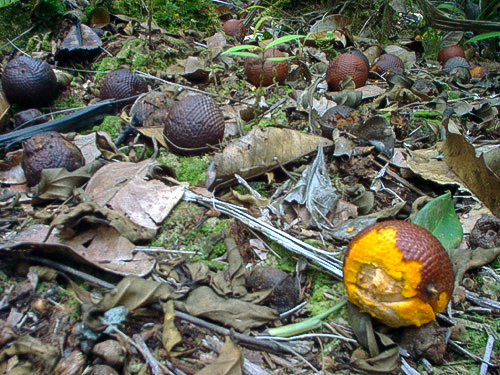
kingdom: Plantae
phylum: Tracheophyta
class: Liliopsida
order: Arecales
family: Arecaceae
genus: Mauritia
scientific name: Mauritia carana
